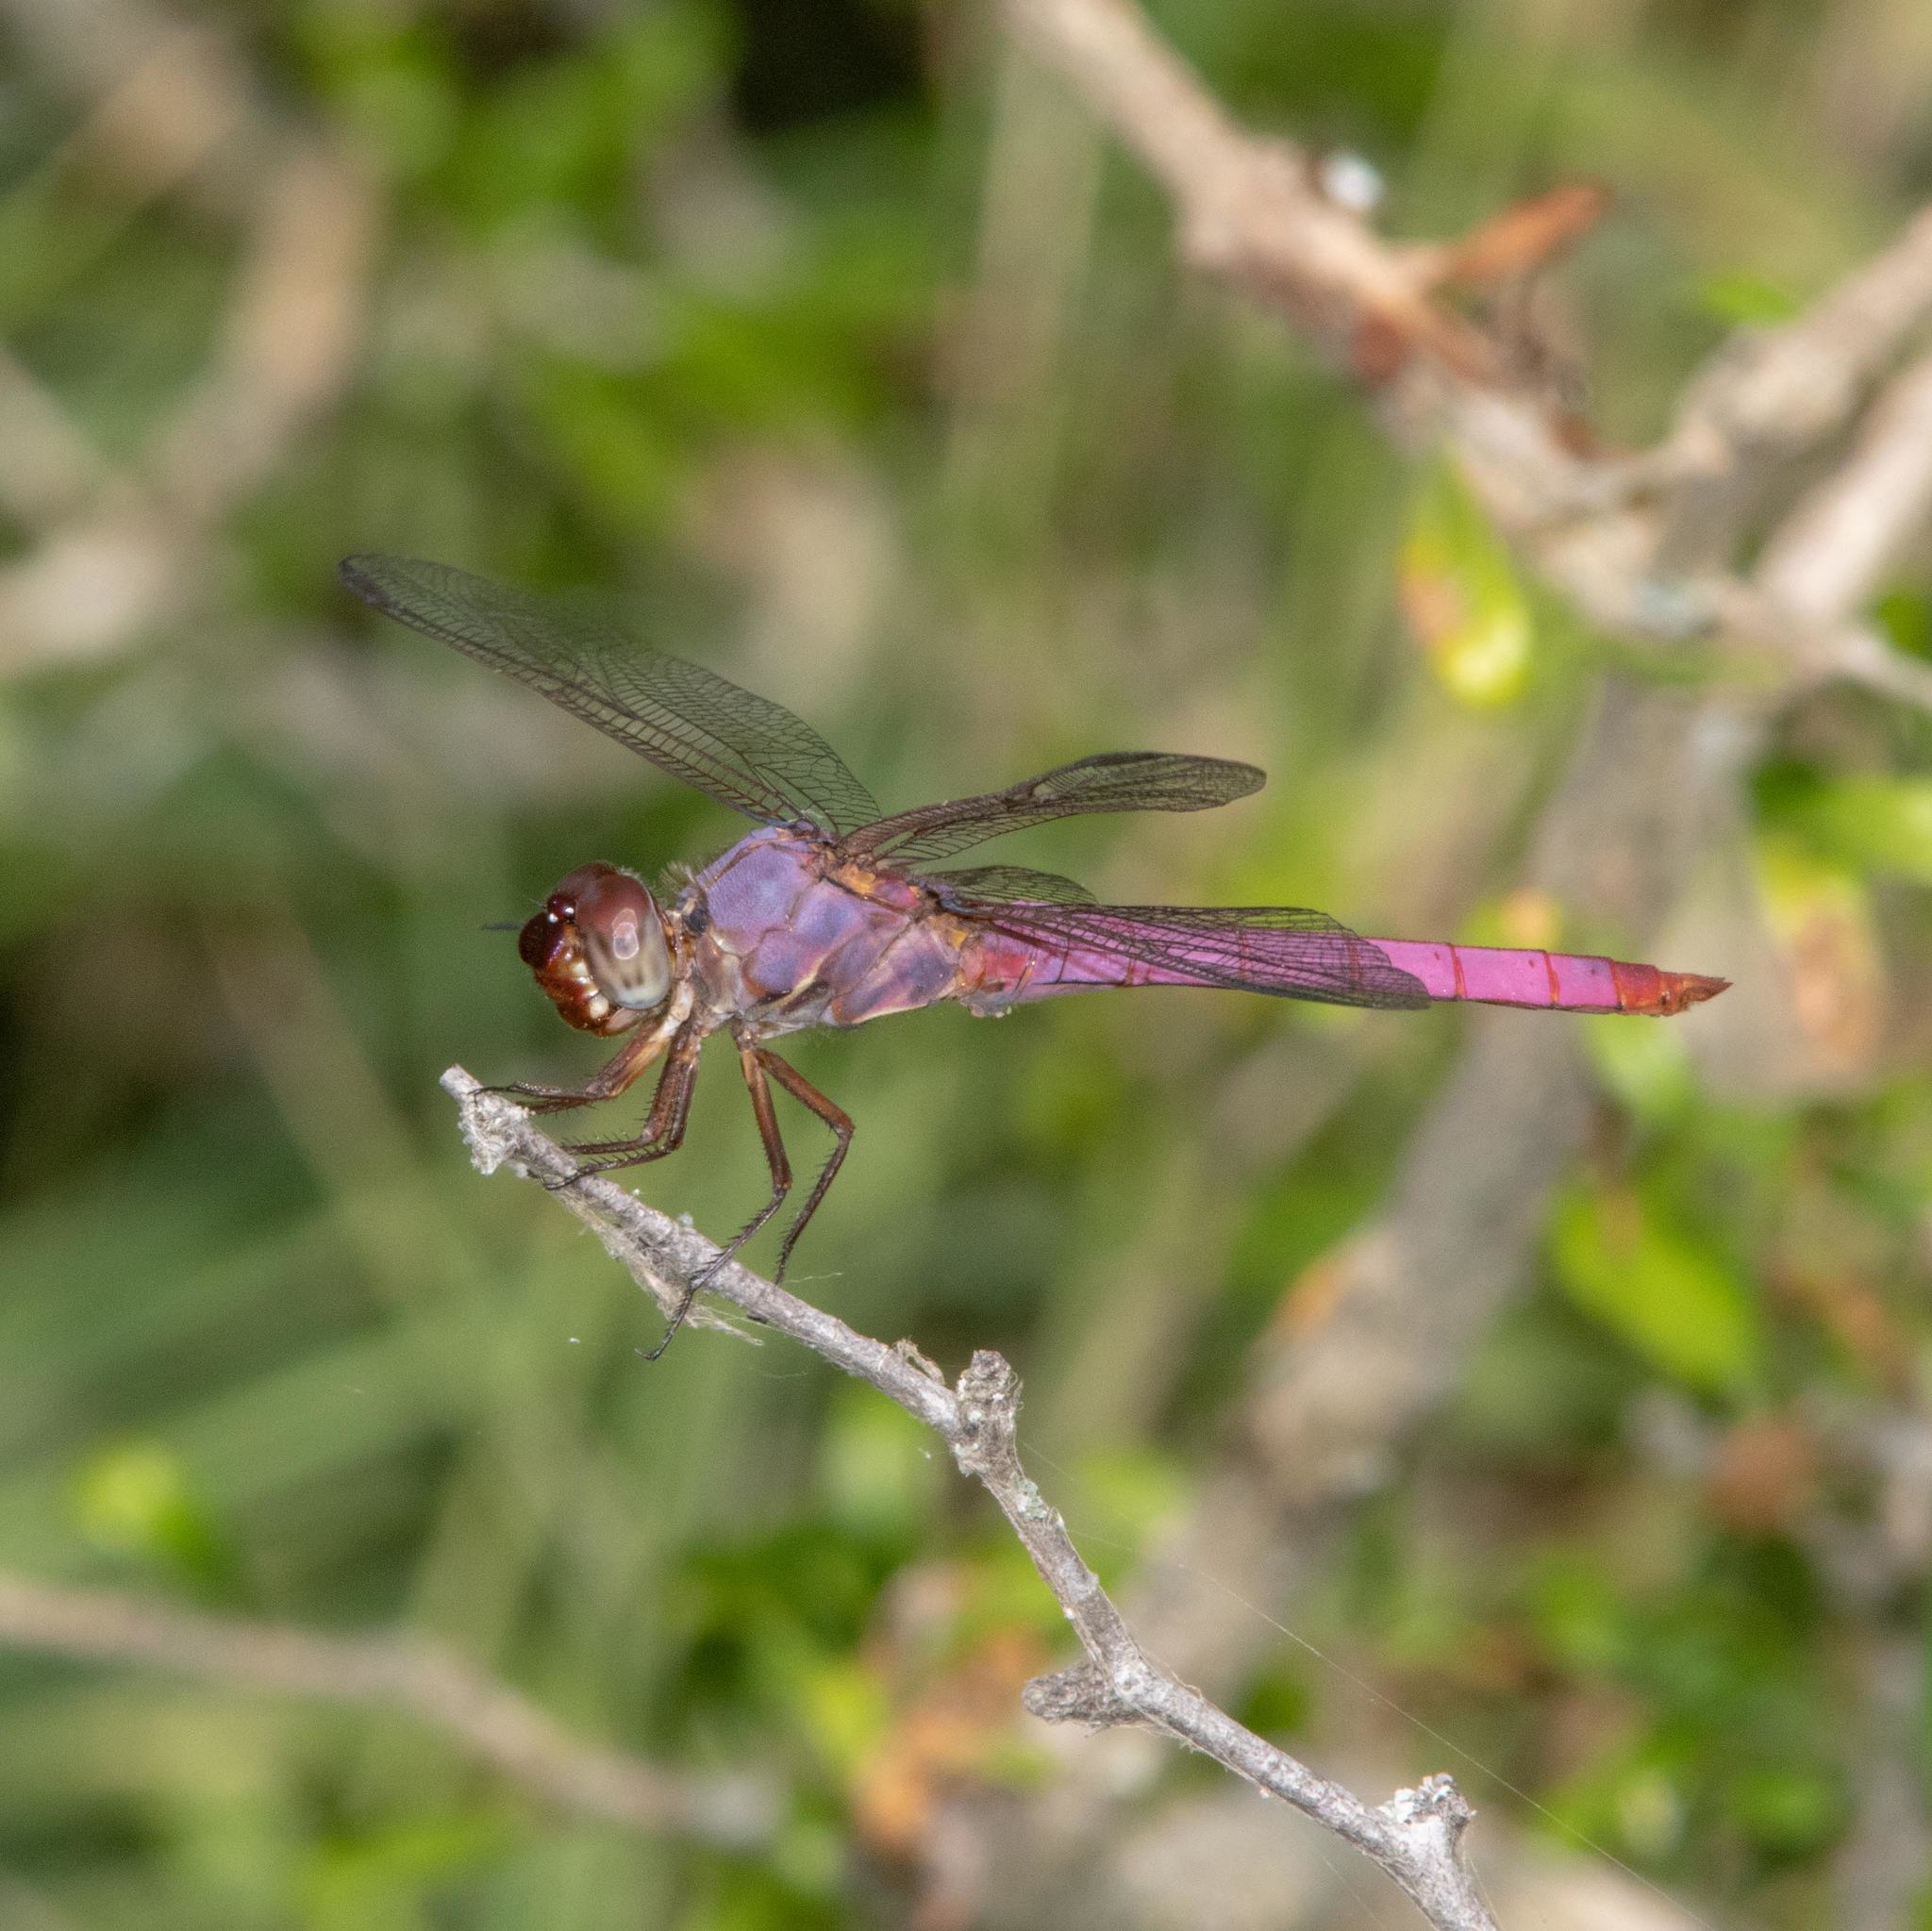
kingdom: Animalia
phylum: Arthropoda
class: Insecta
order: Odonata
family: Libellulidae
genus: Orthemis
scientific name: Orthemis ferruginea
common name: Roseate skimmer
